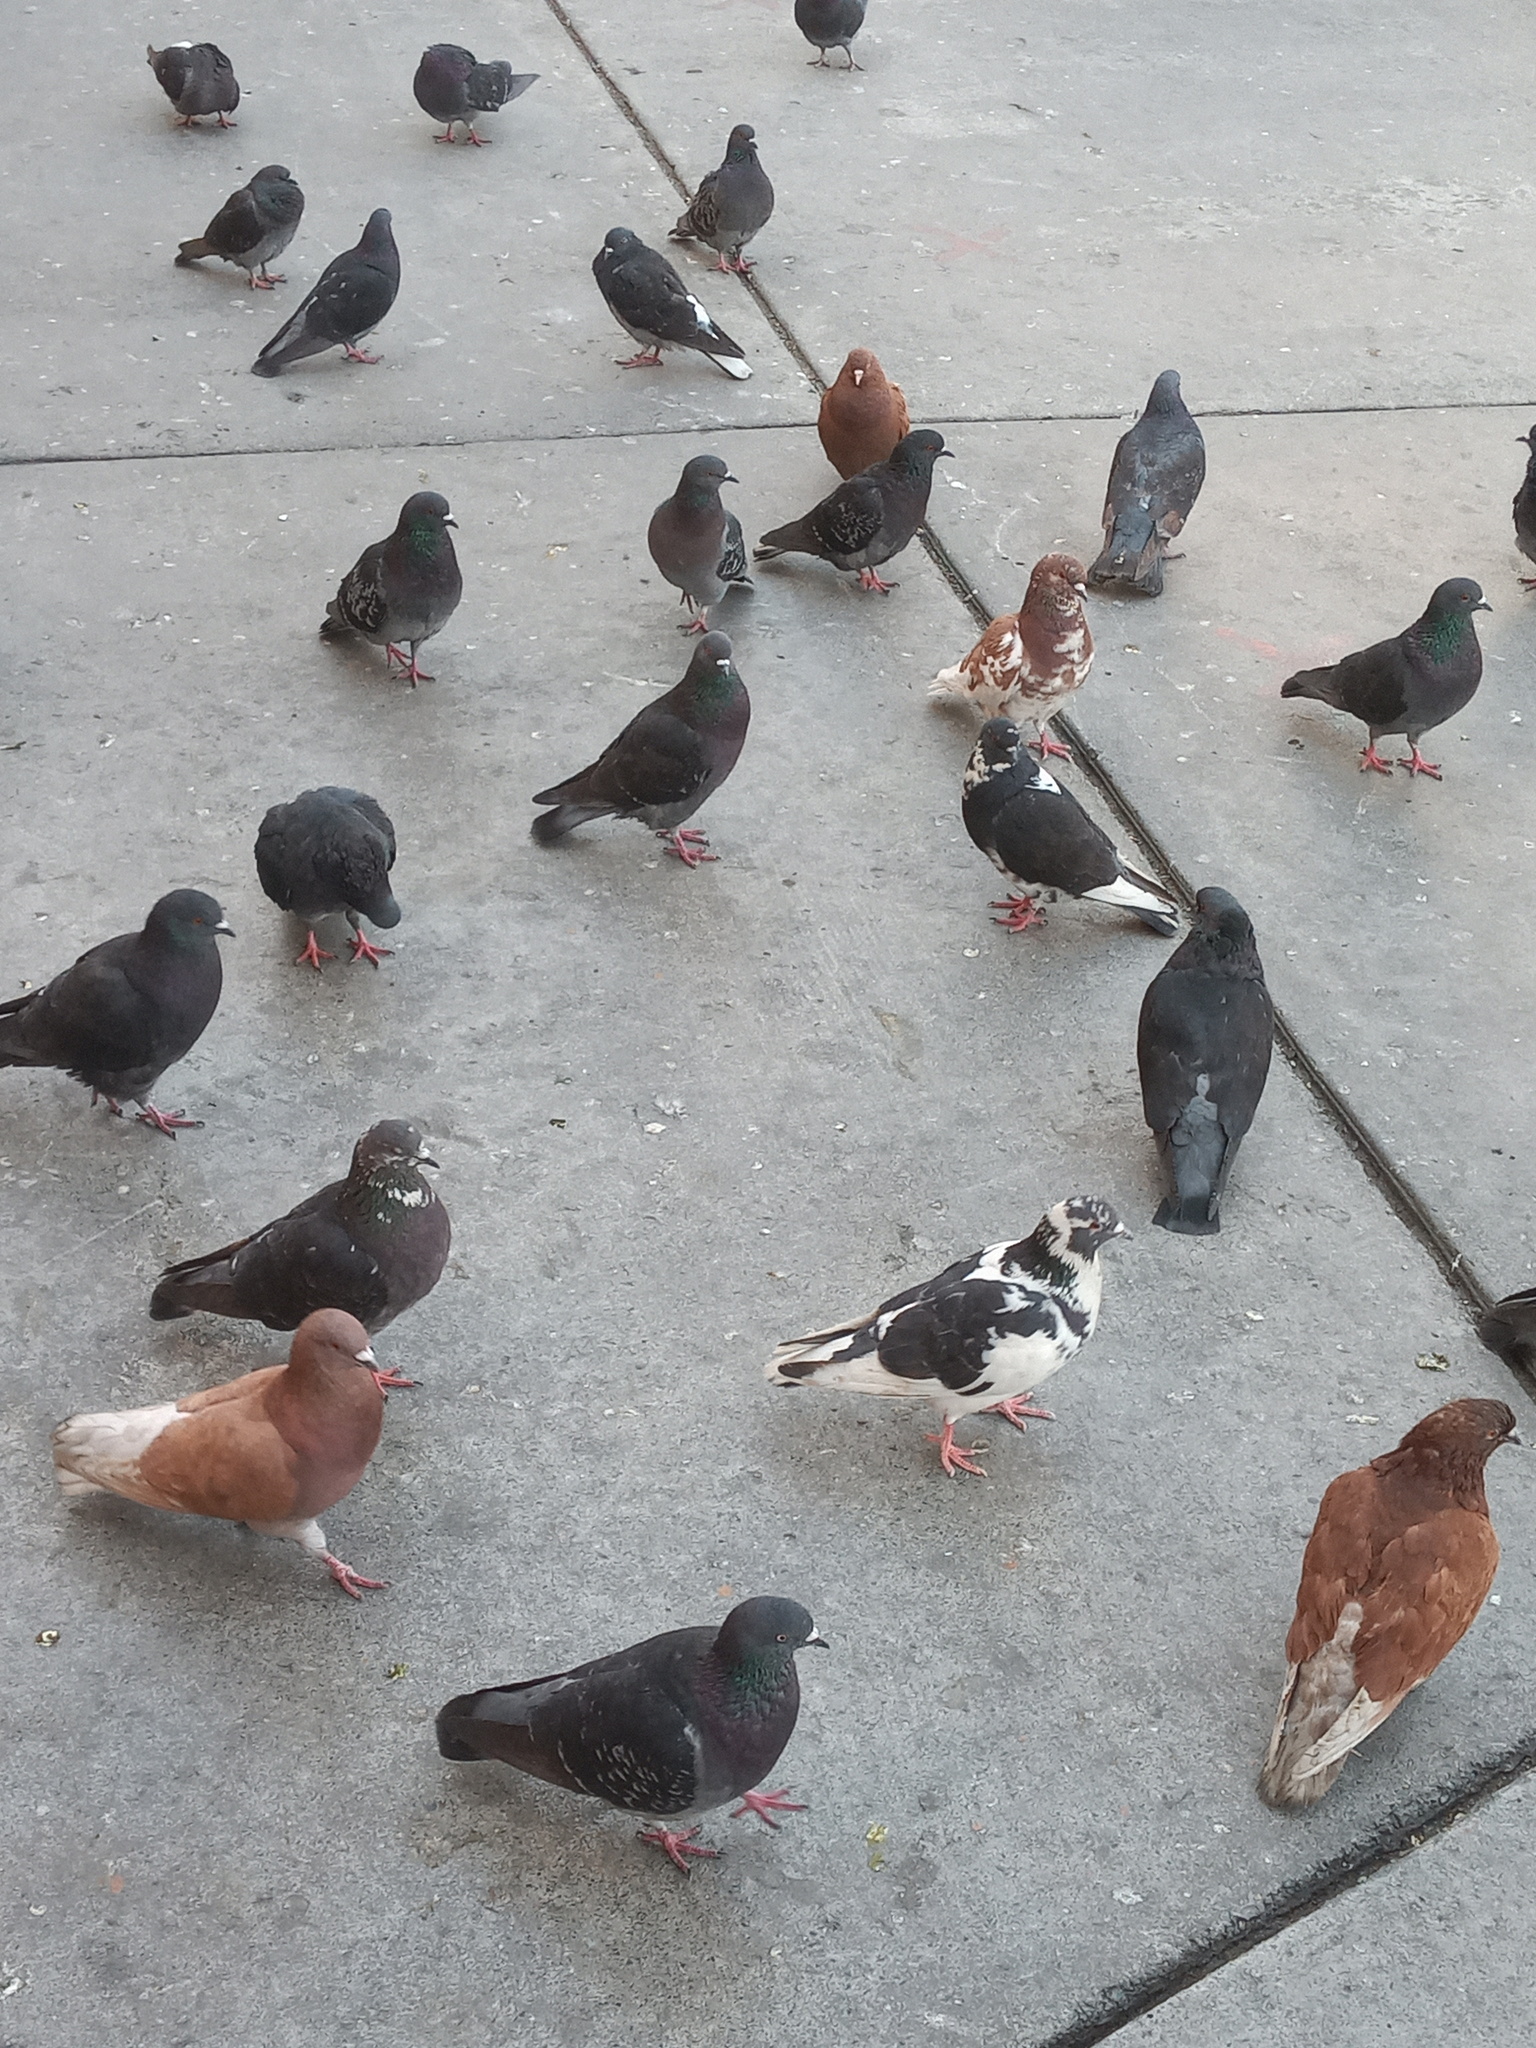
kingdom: Animalia
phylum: Chordata
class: Aves
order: Columbiformes
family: Columbidae
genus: Columba
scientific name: Columba livia
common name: Rock pigeon
